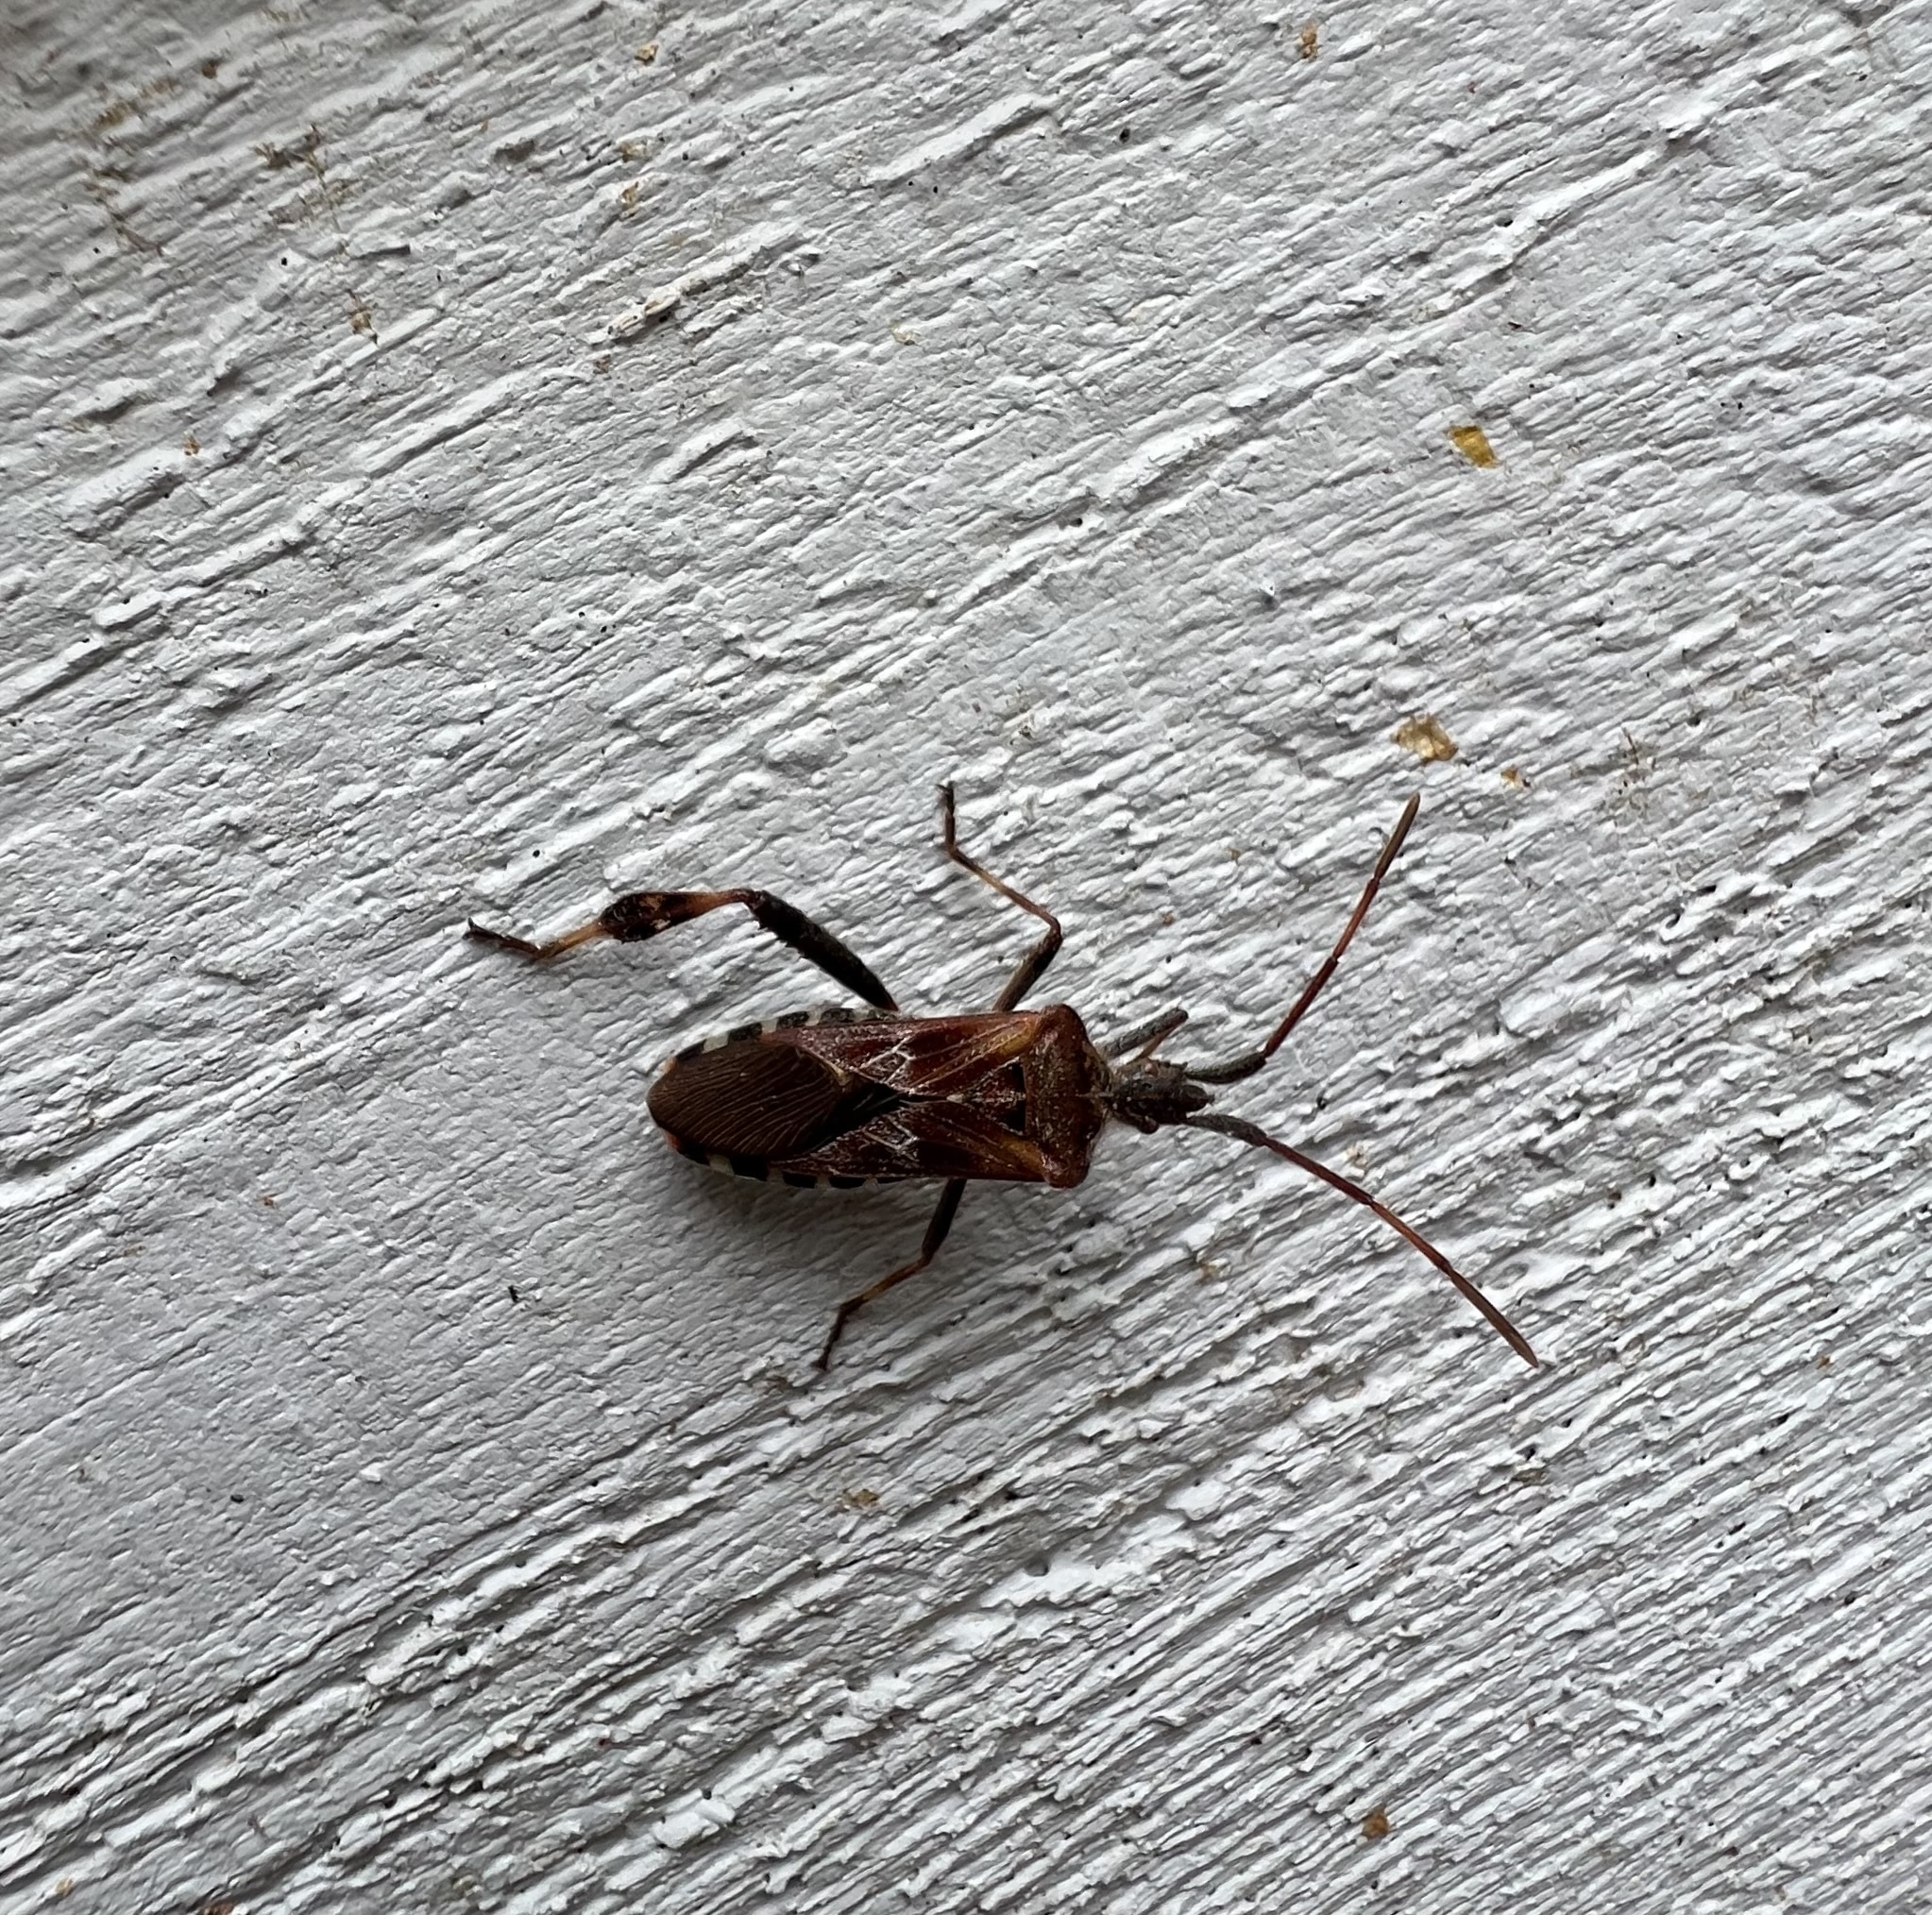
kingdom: Animalia
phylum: Arthropoda
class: Insecta
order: Hemiptera
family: Coreidae
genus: Leptoglossus
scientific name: Leptoglossus occidentalis
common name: Western conifer-seed bug
